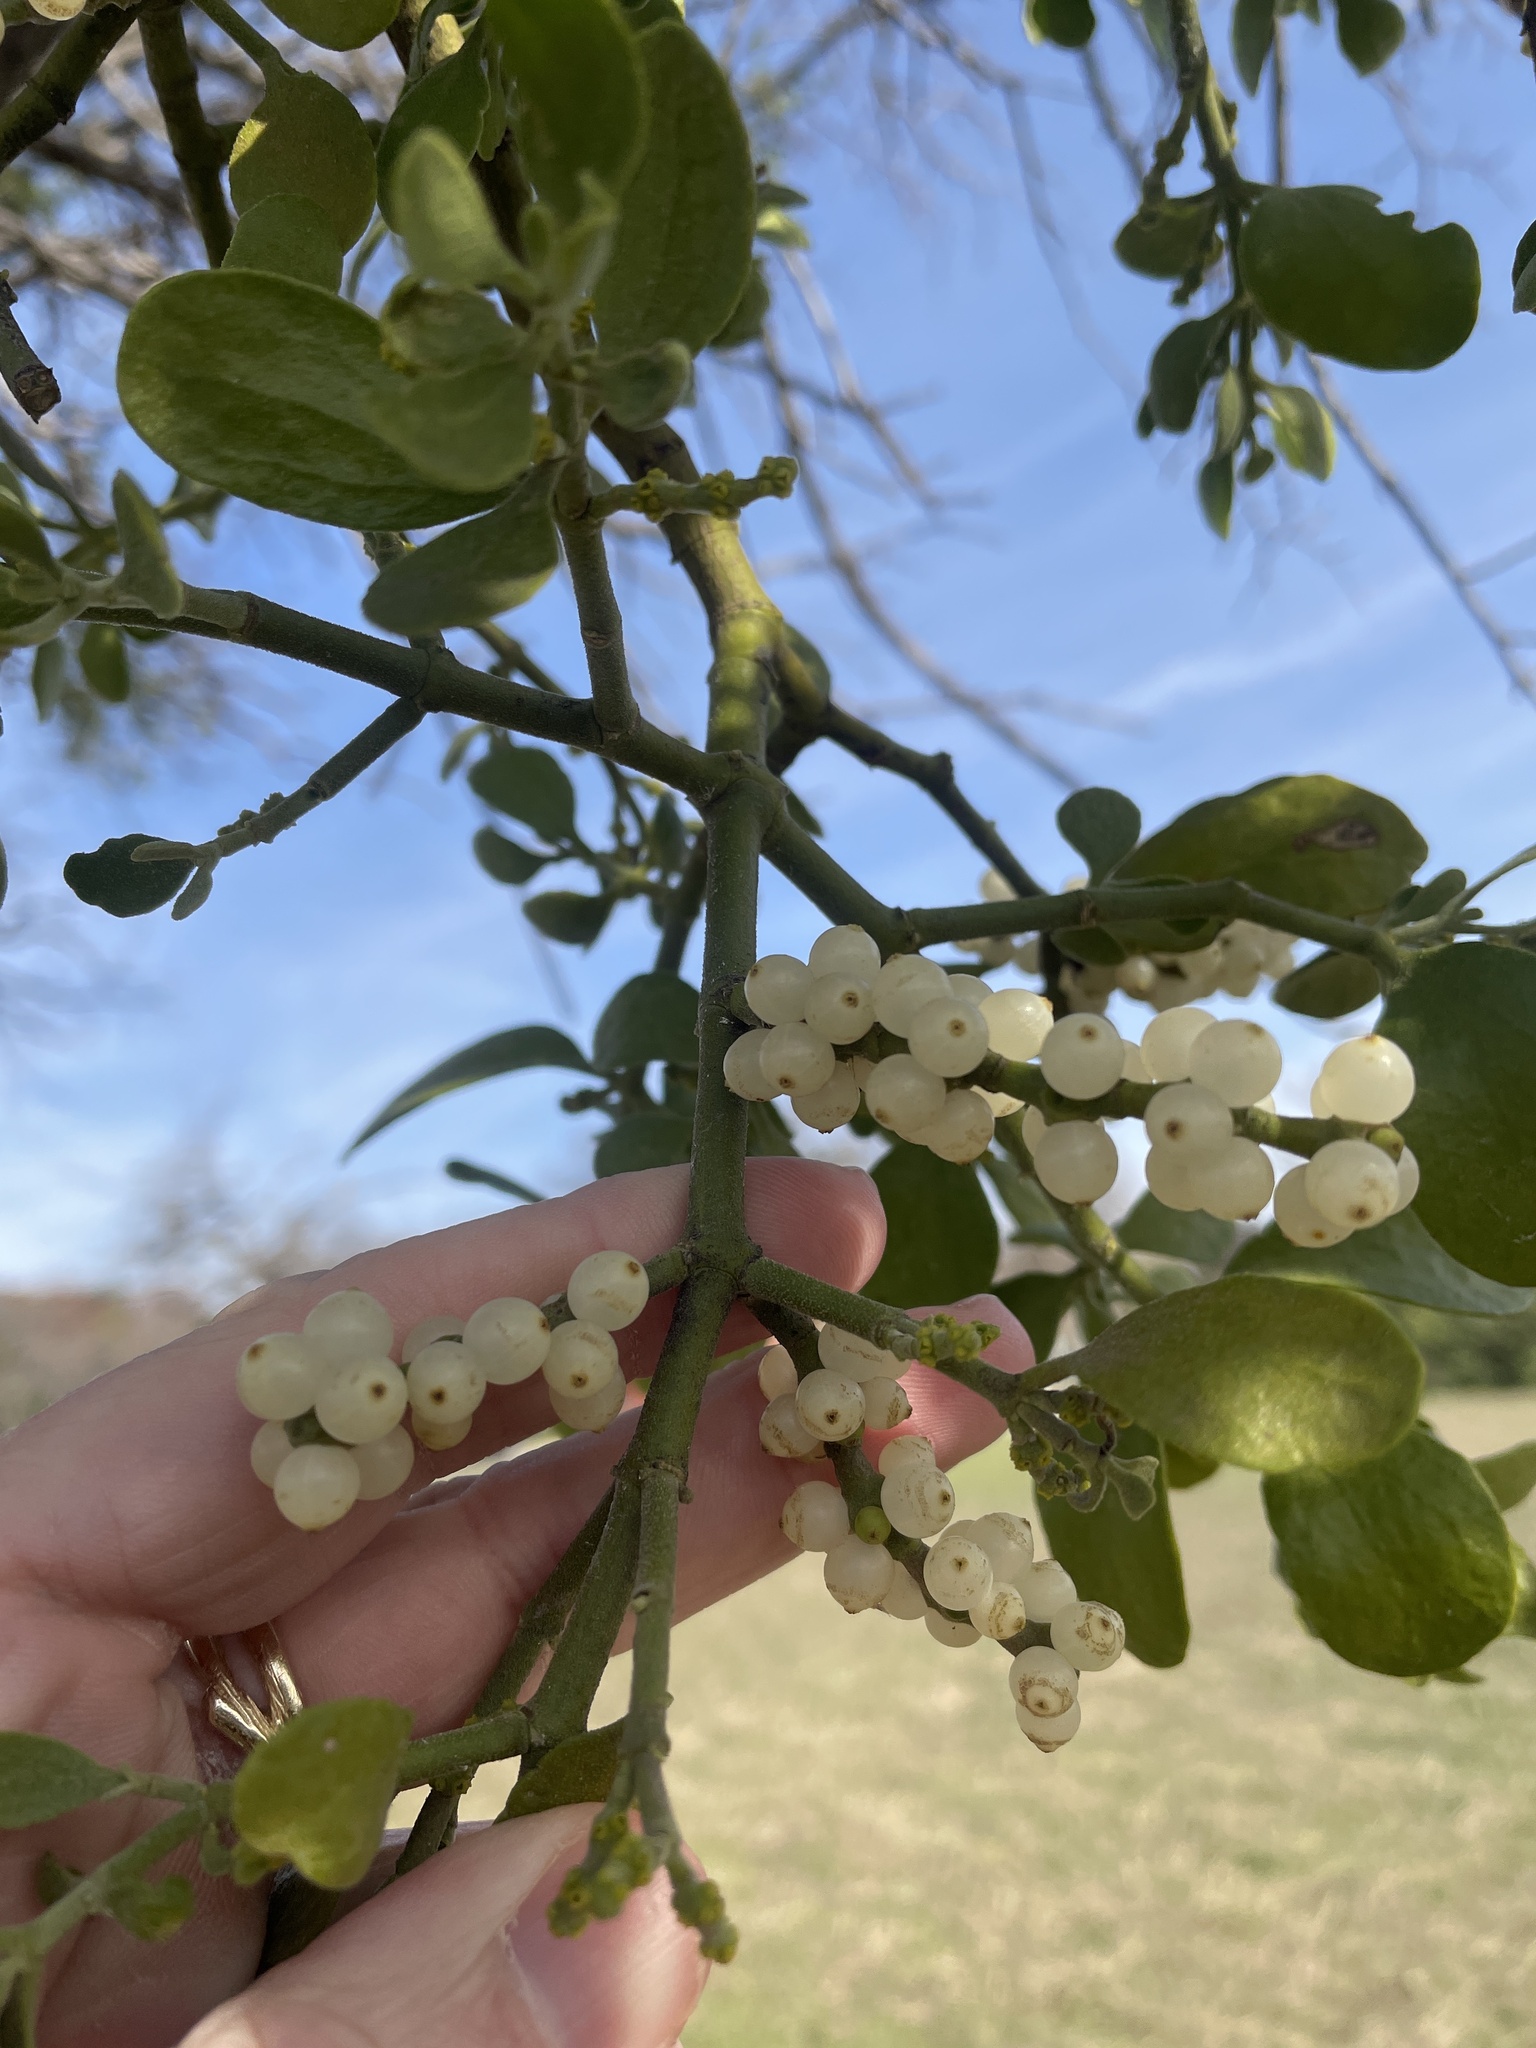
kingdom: Plantae
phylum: Tracheophyta
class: Magnoliopsida
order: Santalales
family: Viscaceae
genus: Phoradendron
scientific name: Phoradendron leucarpum
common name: Pacific mistletoe
